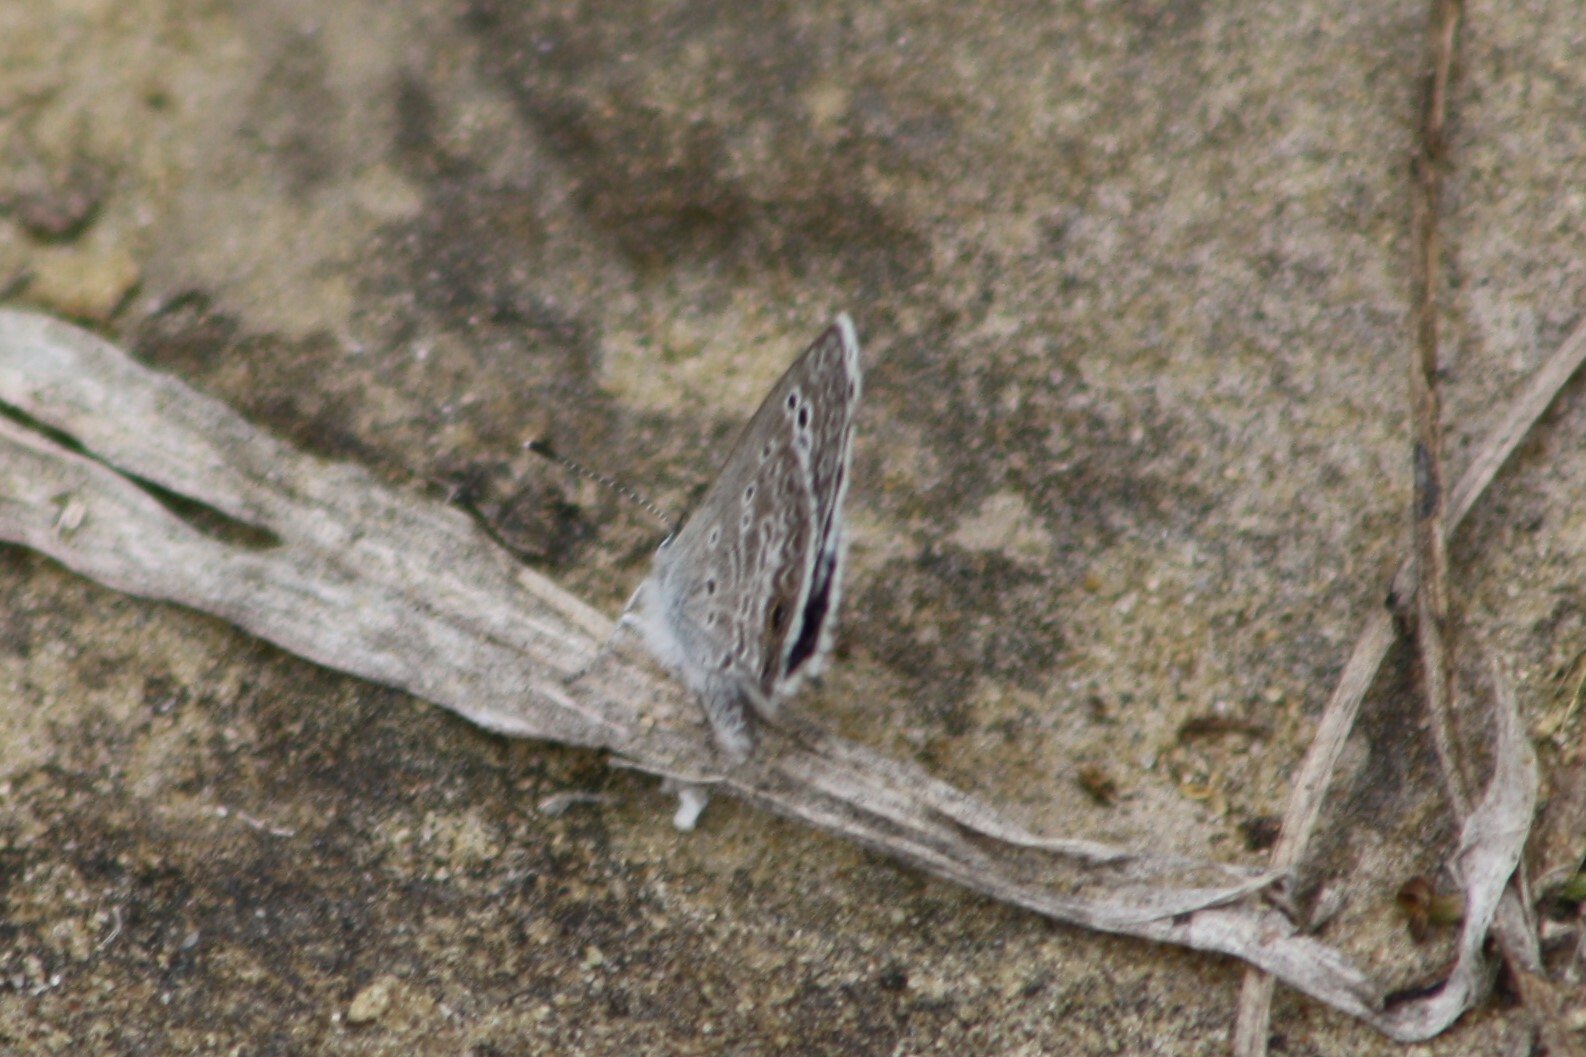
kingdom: Animalia
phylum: Arthropoda
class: Insecta
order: Lepidoptera
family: Lycaenidae
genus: Echinargus
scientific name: Echinargus isola
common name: Reakirt's blue
